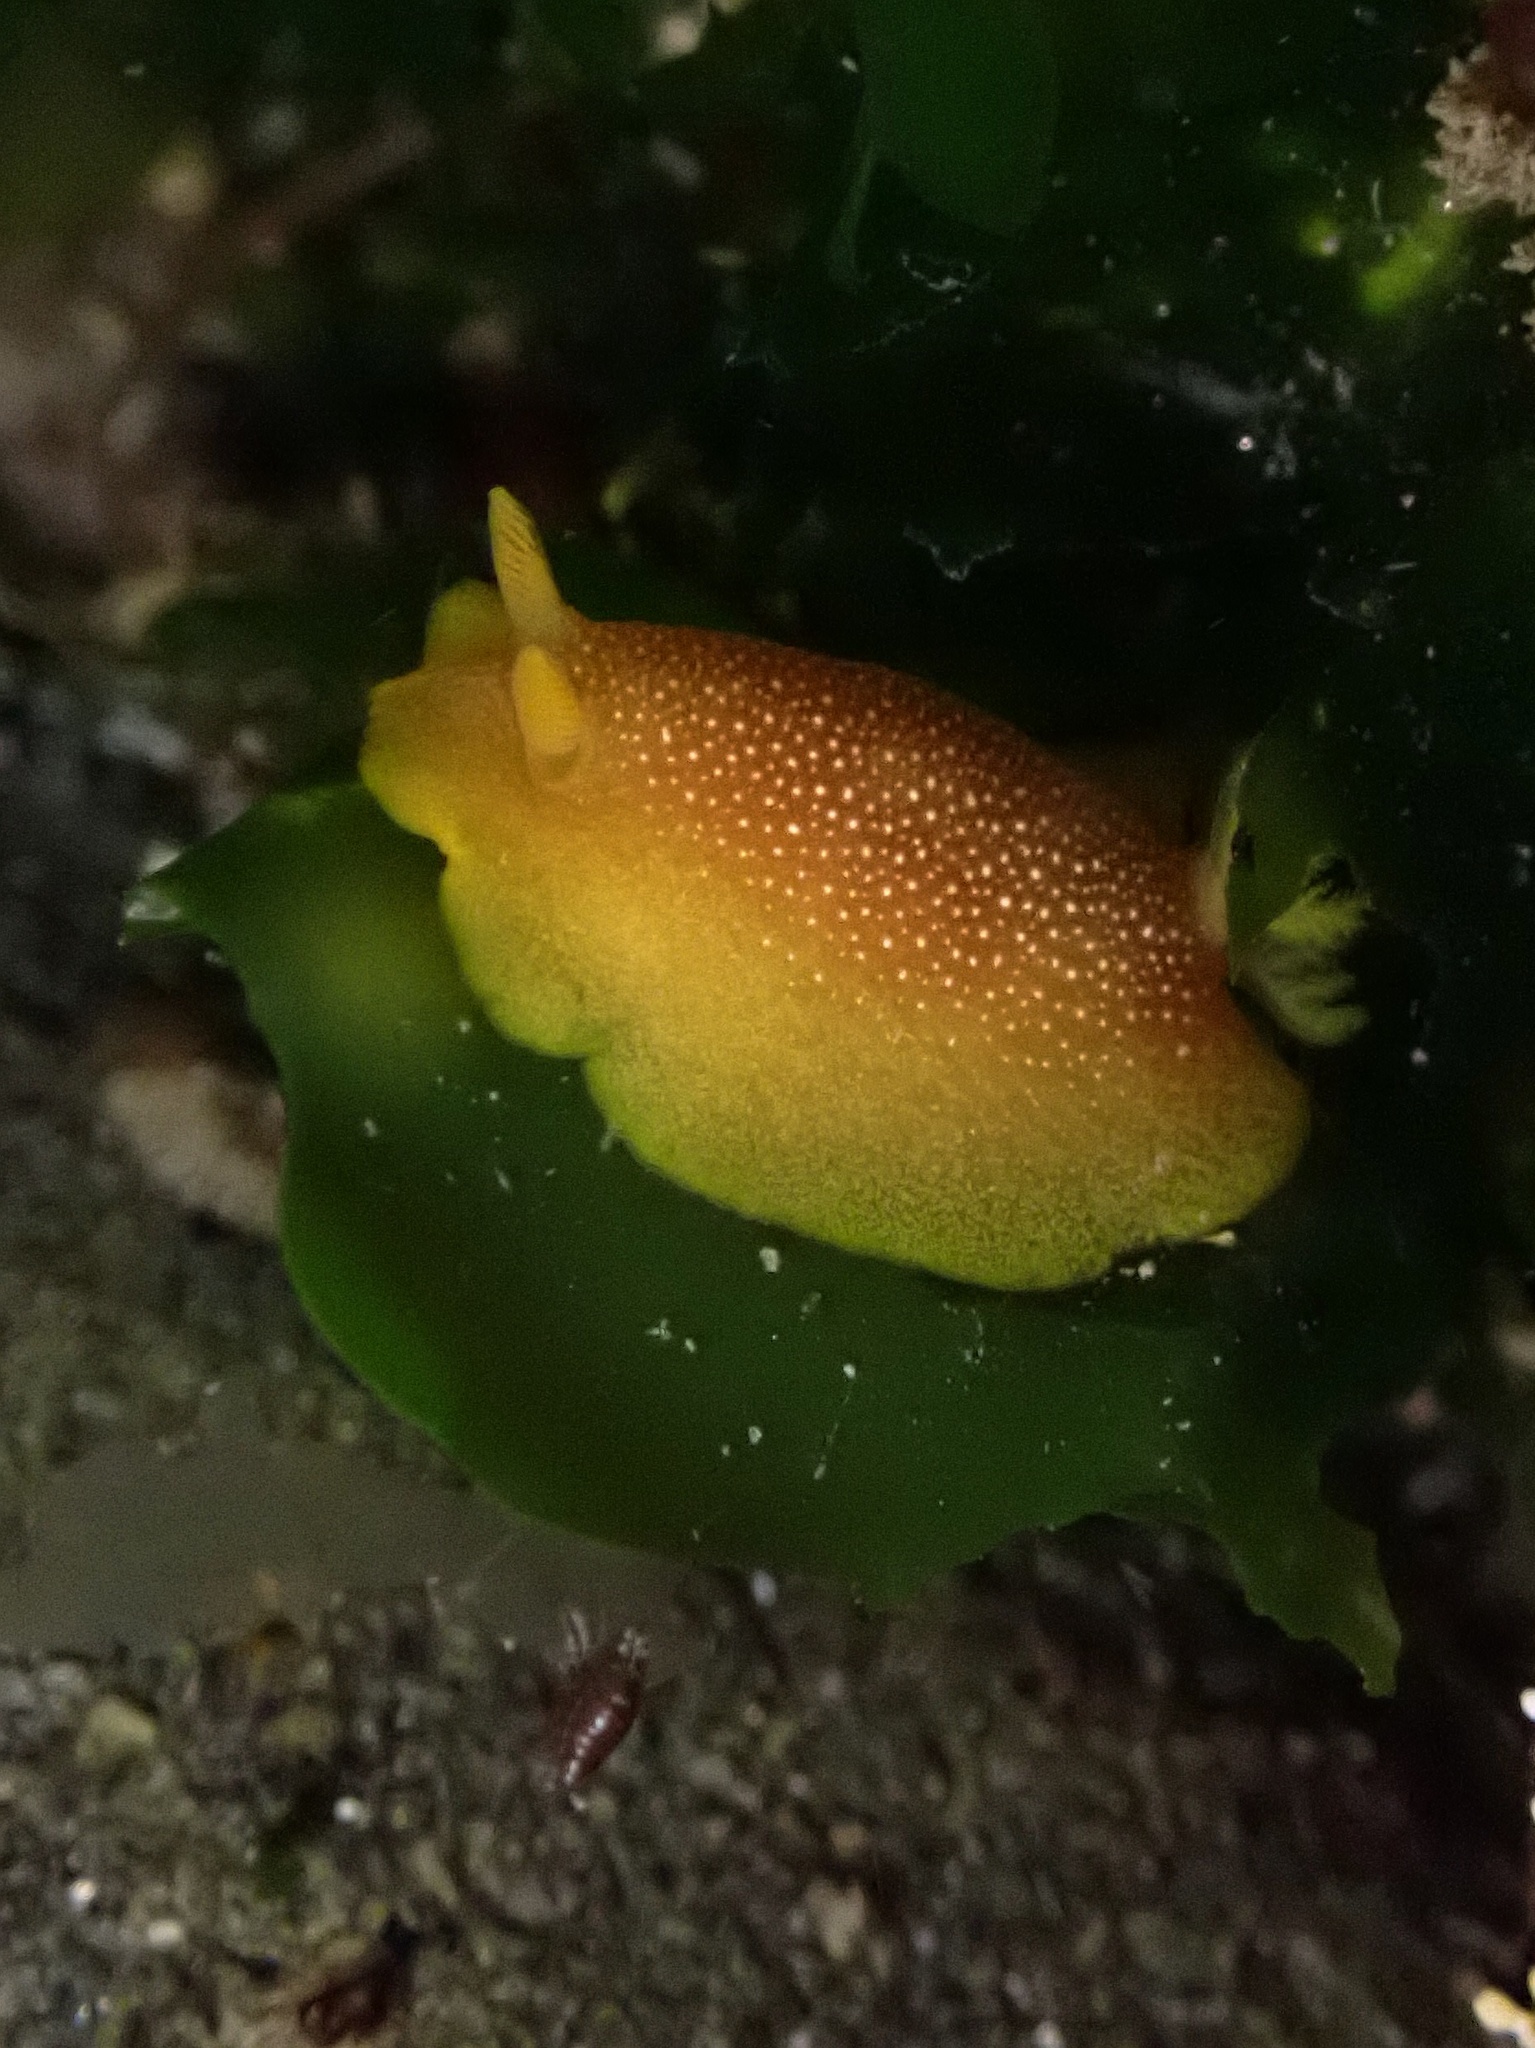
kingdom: Animalia
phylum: Mollusca
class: Gastropoda
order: Nudibranchia
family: Dendrodorididae
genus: Doriopsilla
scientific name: Doriopsilla albopunctata
